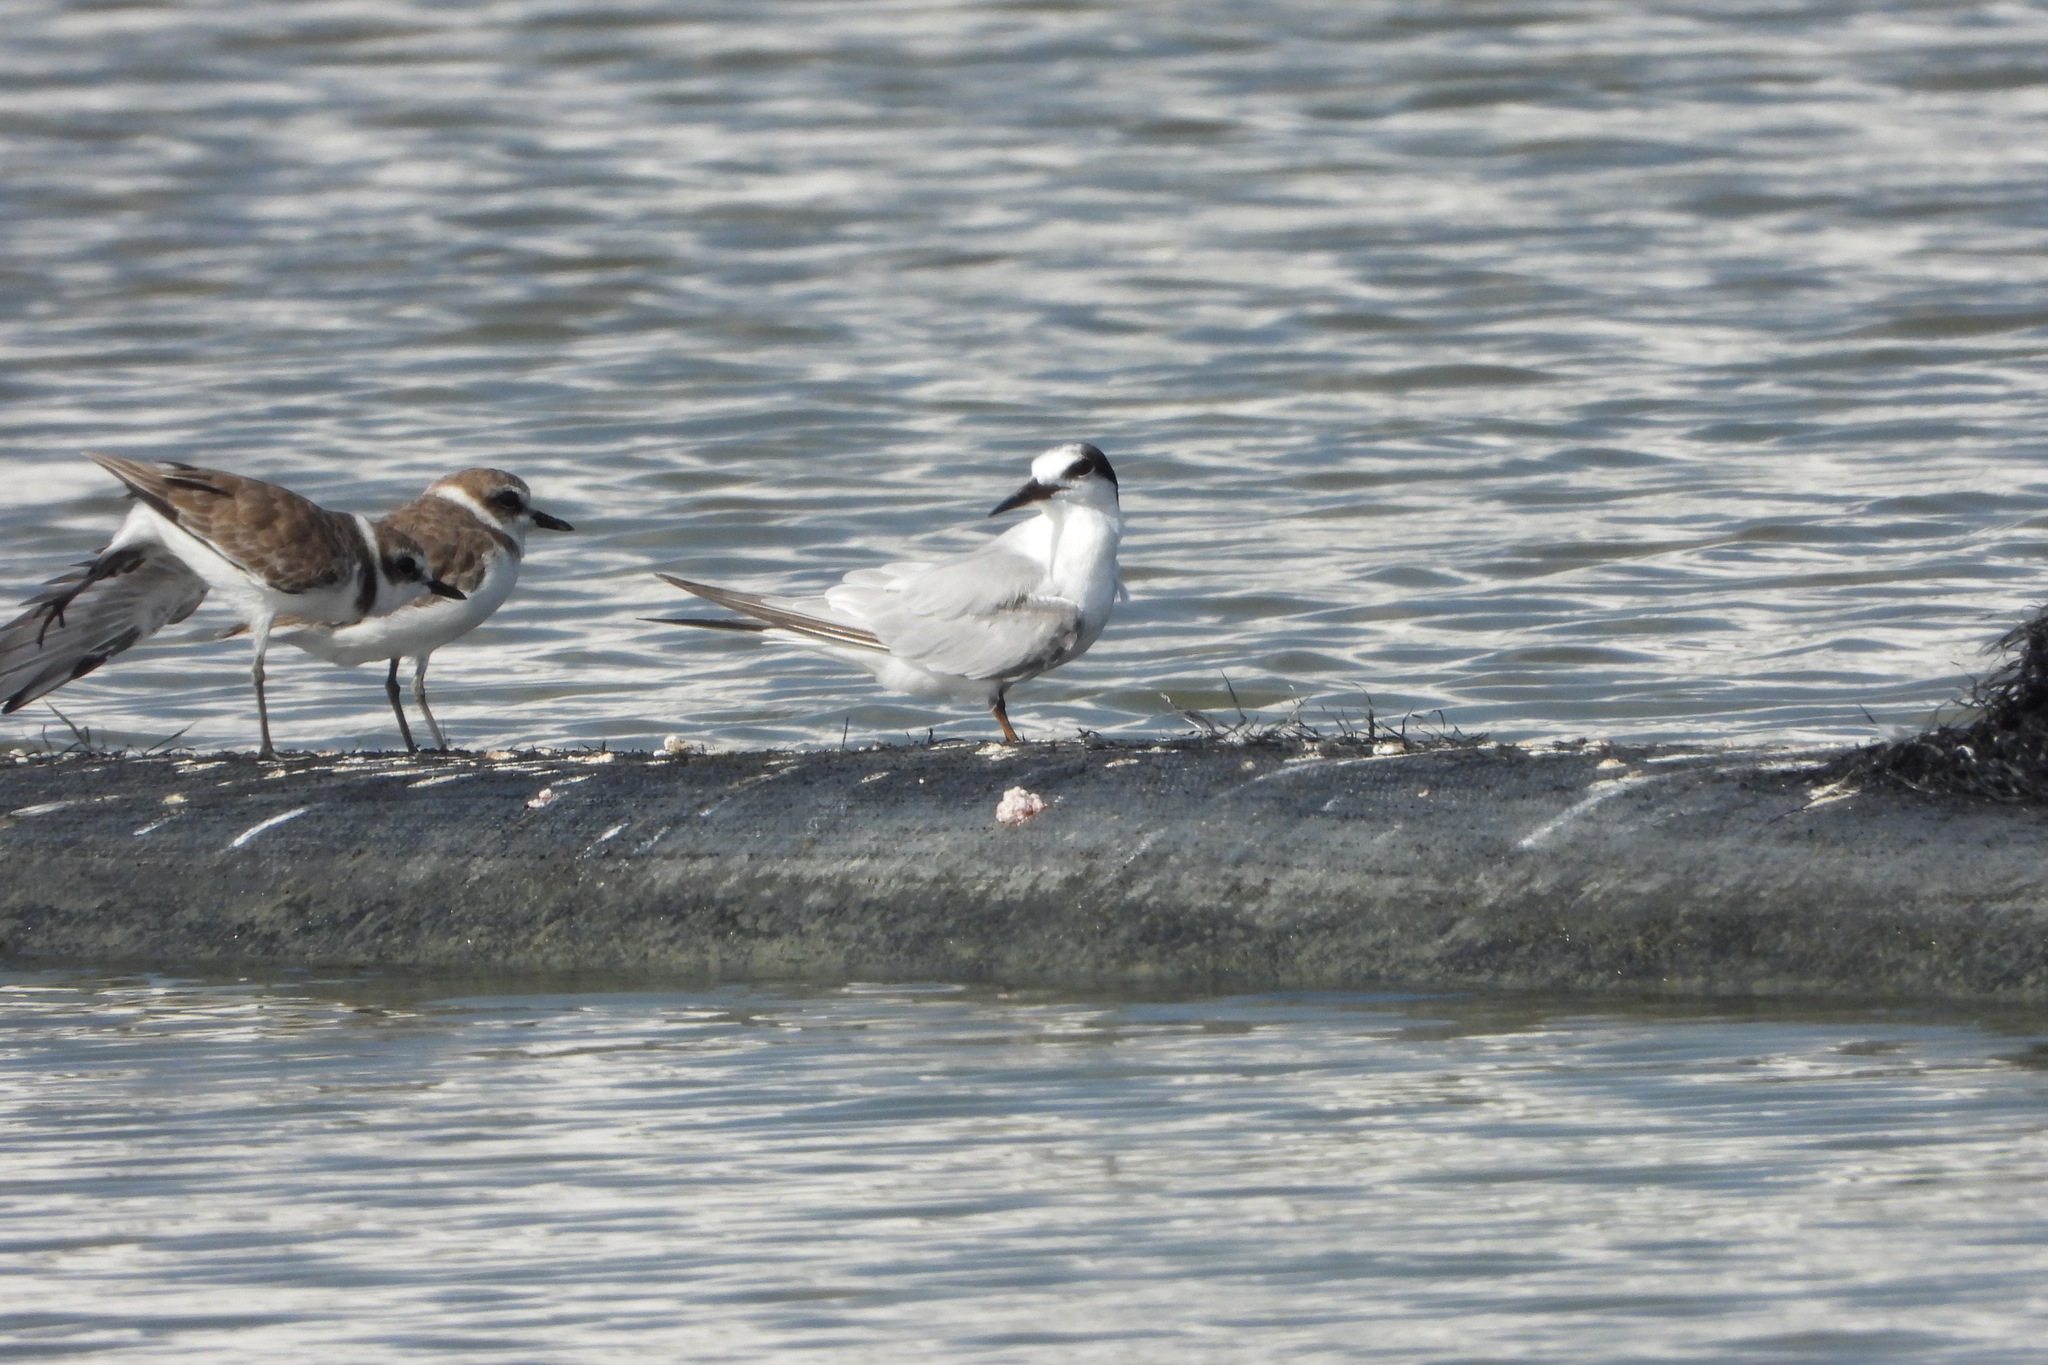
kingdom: Animalia
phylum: Chordata
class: Aves
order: Charadriiformes
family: Laridae
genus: Sternula
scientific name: Sternula albifrons
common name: Little tern
